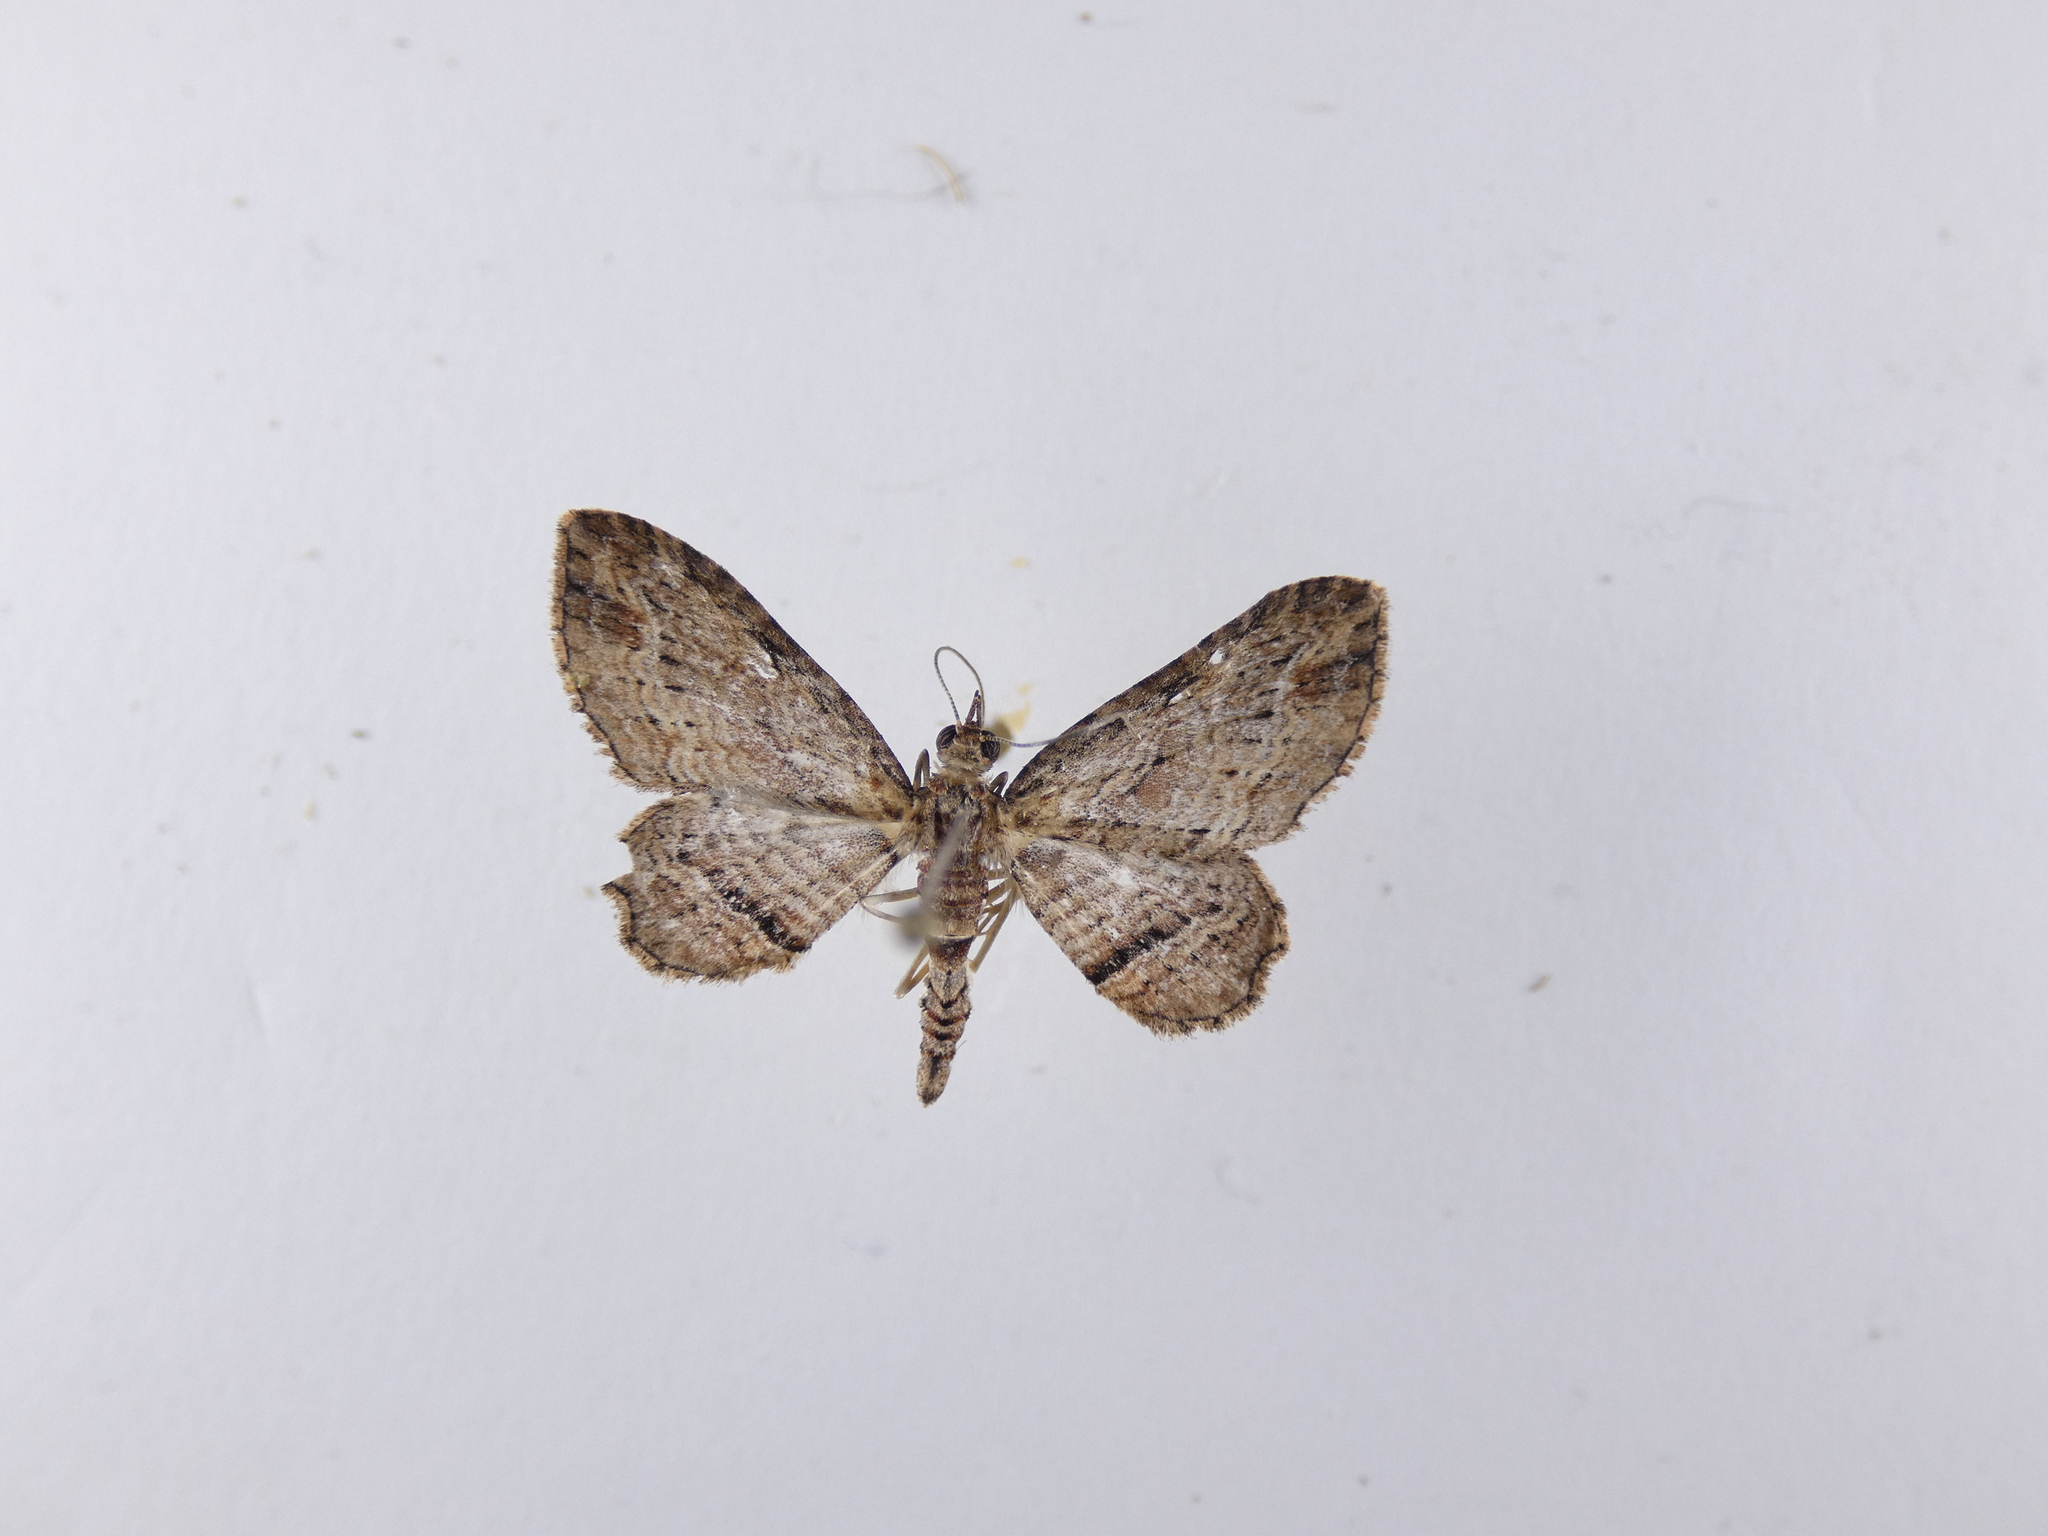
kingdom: Animalia
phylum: Arthropoda
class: Insecta
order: Lepidoptera
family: Geometridae
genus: Chloroclystis
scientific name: Chloroclystis filata
